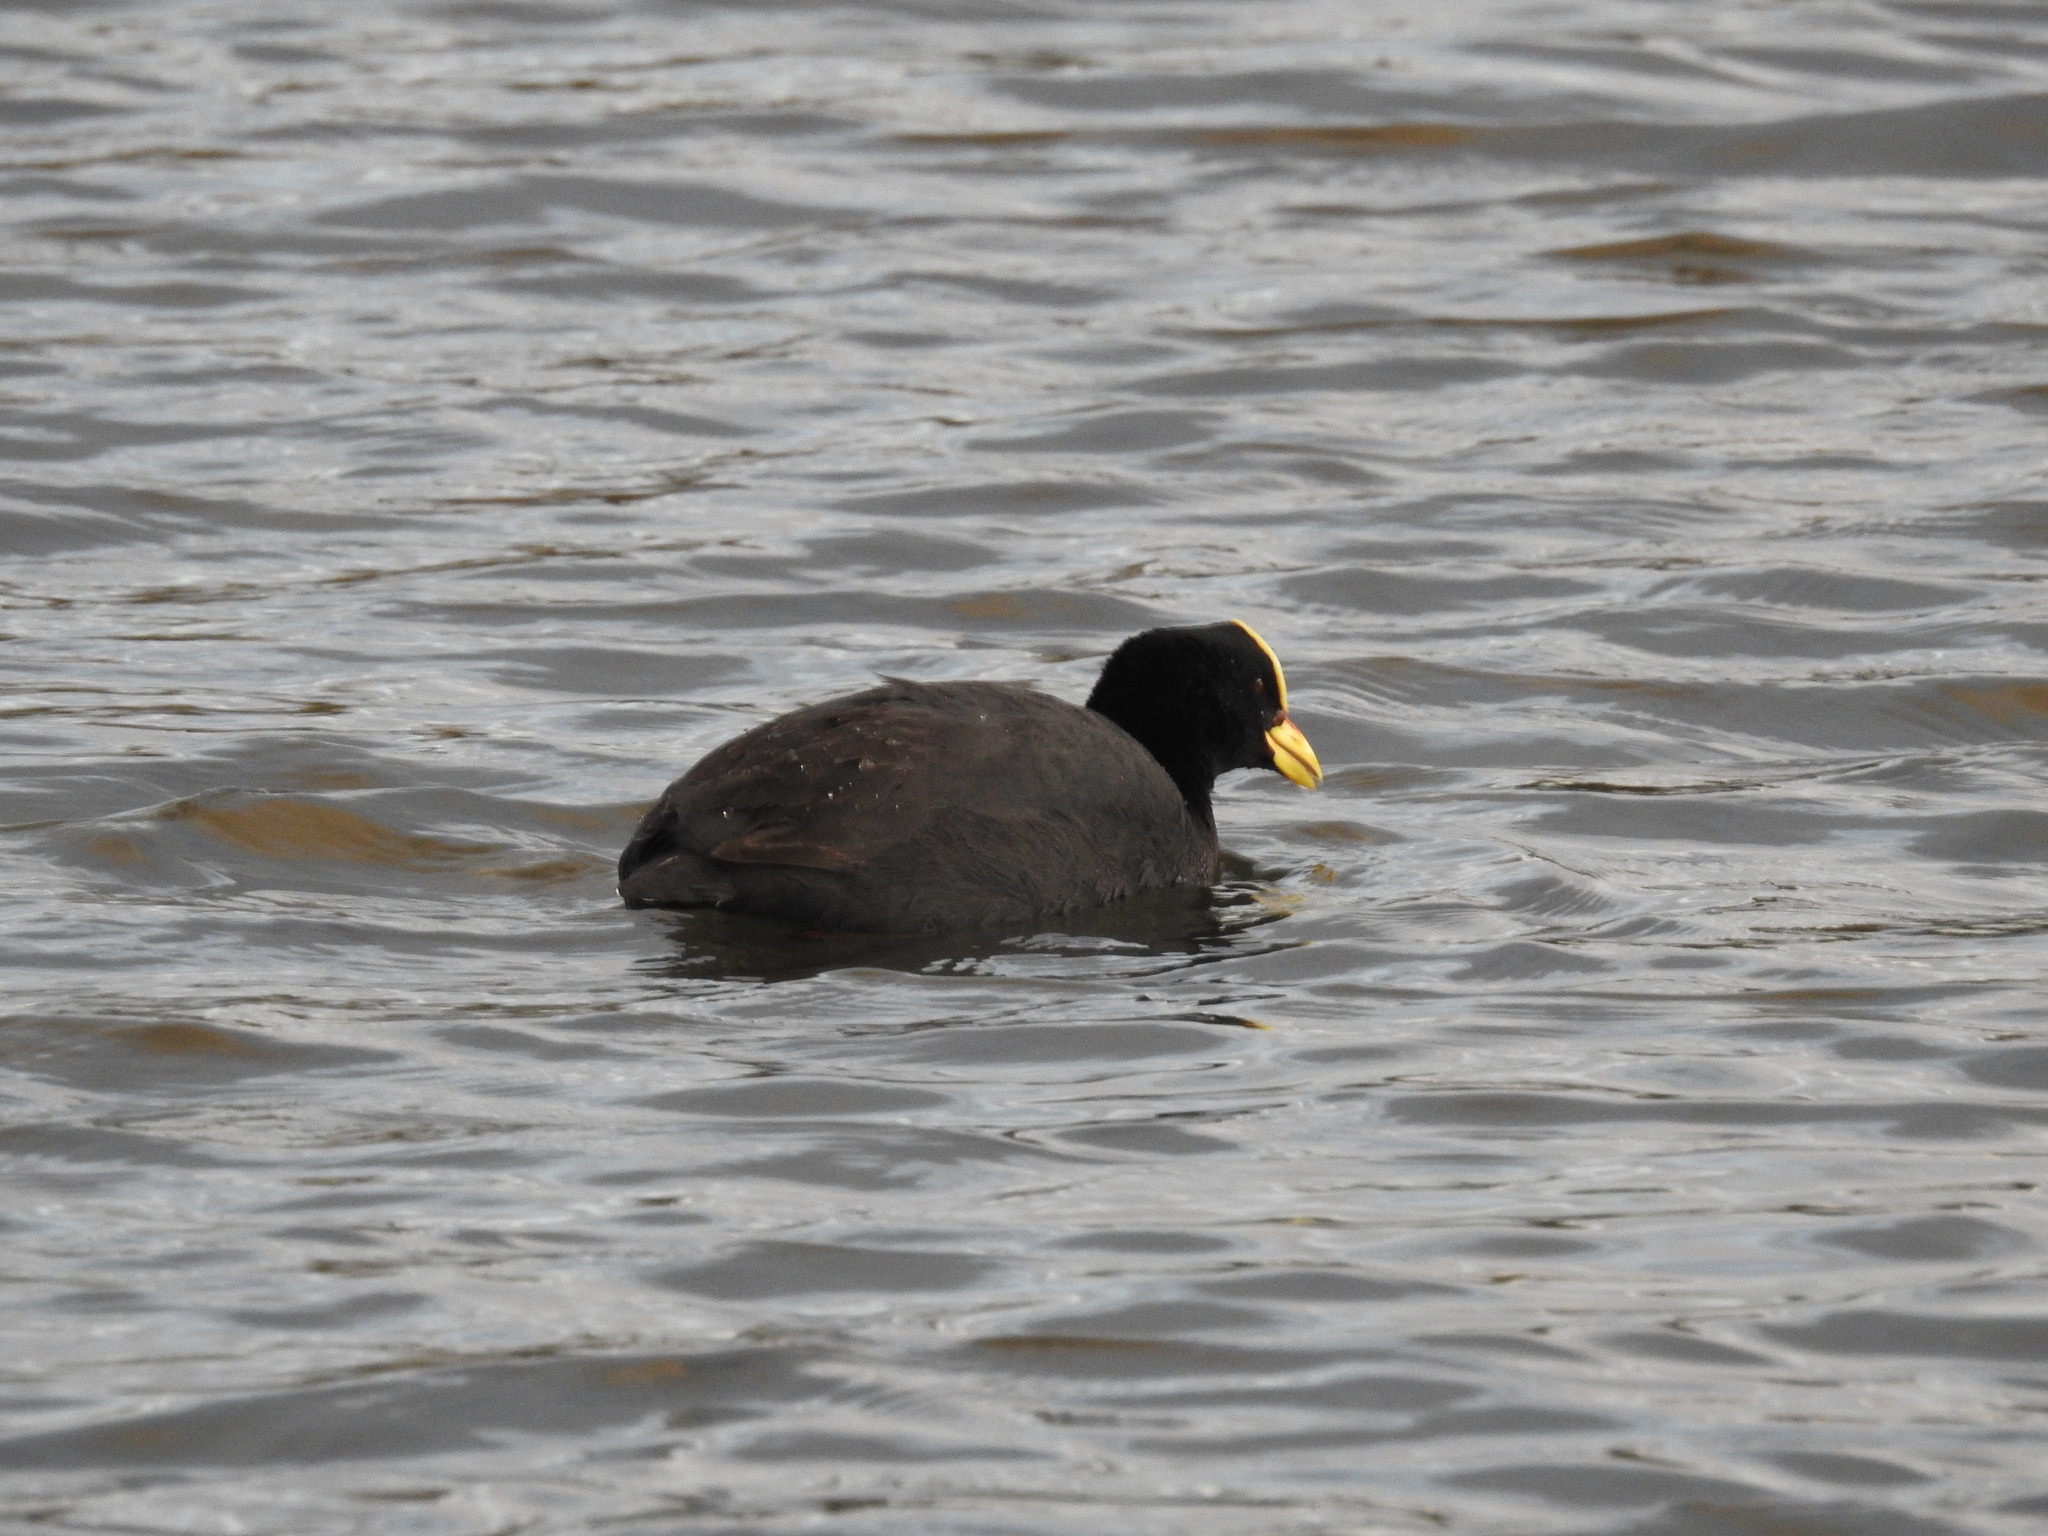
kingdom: Animalia
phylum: Chordata
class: Aves
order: Gruiformes
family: Rallidae
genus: Fulica
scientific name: Fulica armillata
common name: Red-gartered coot
